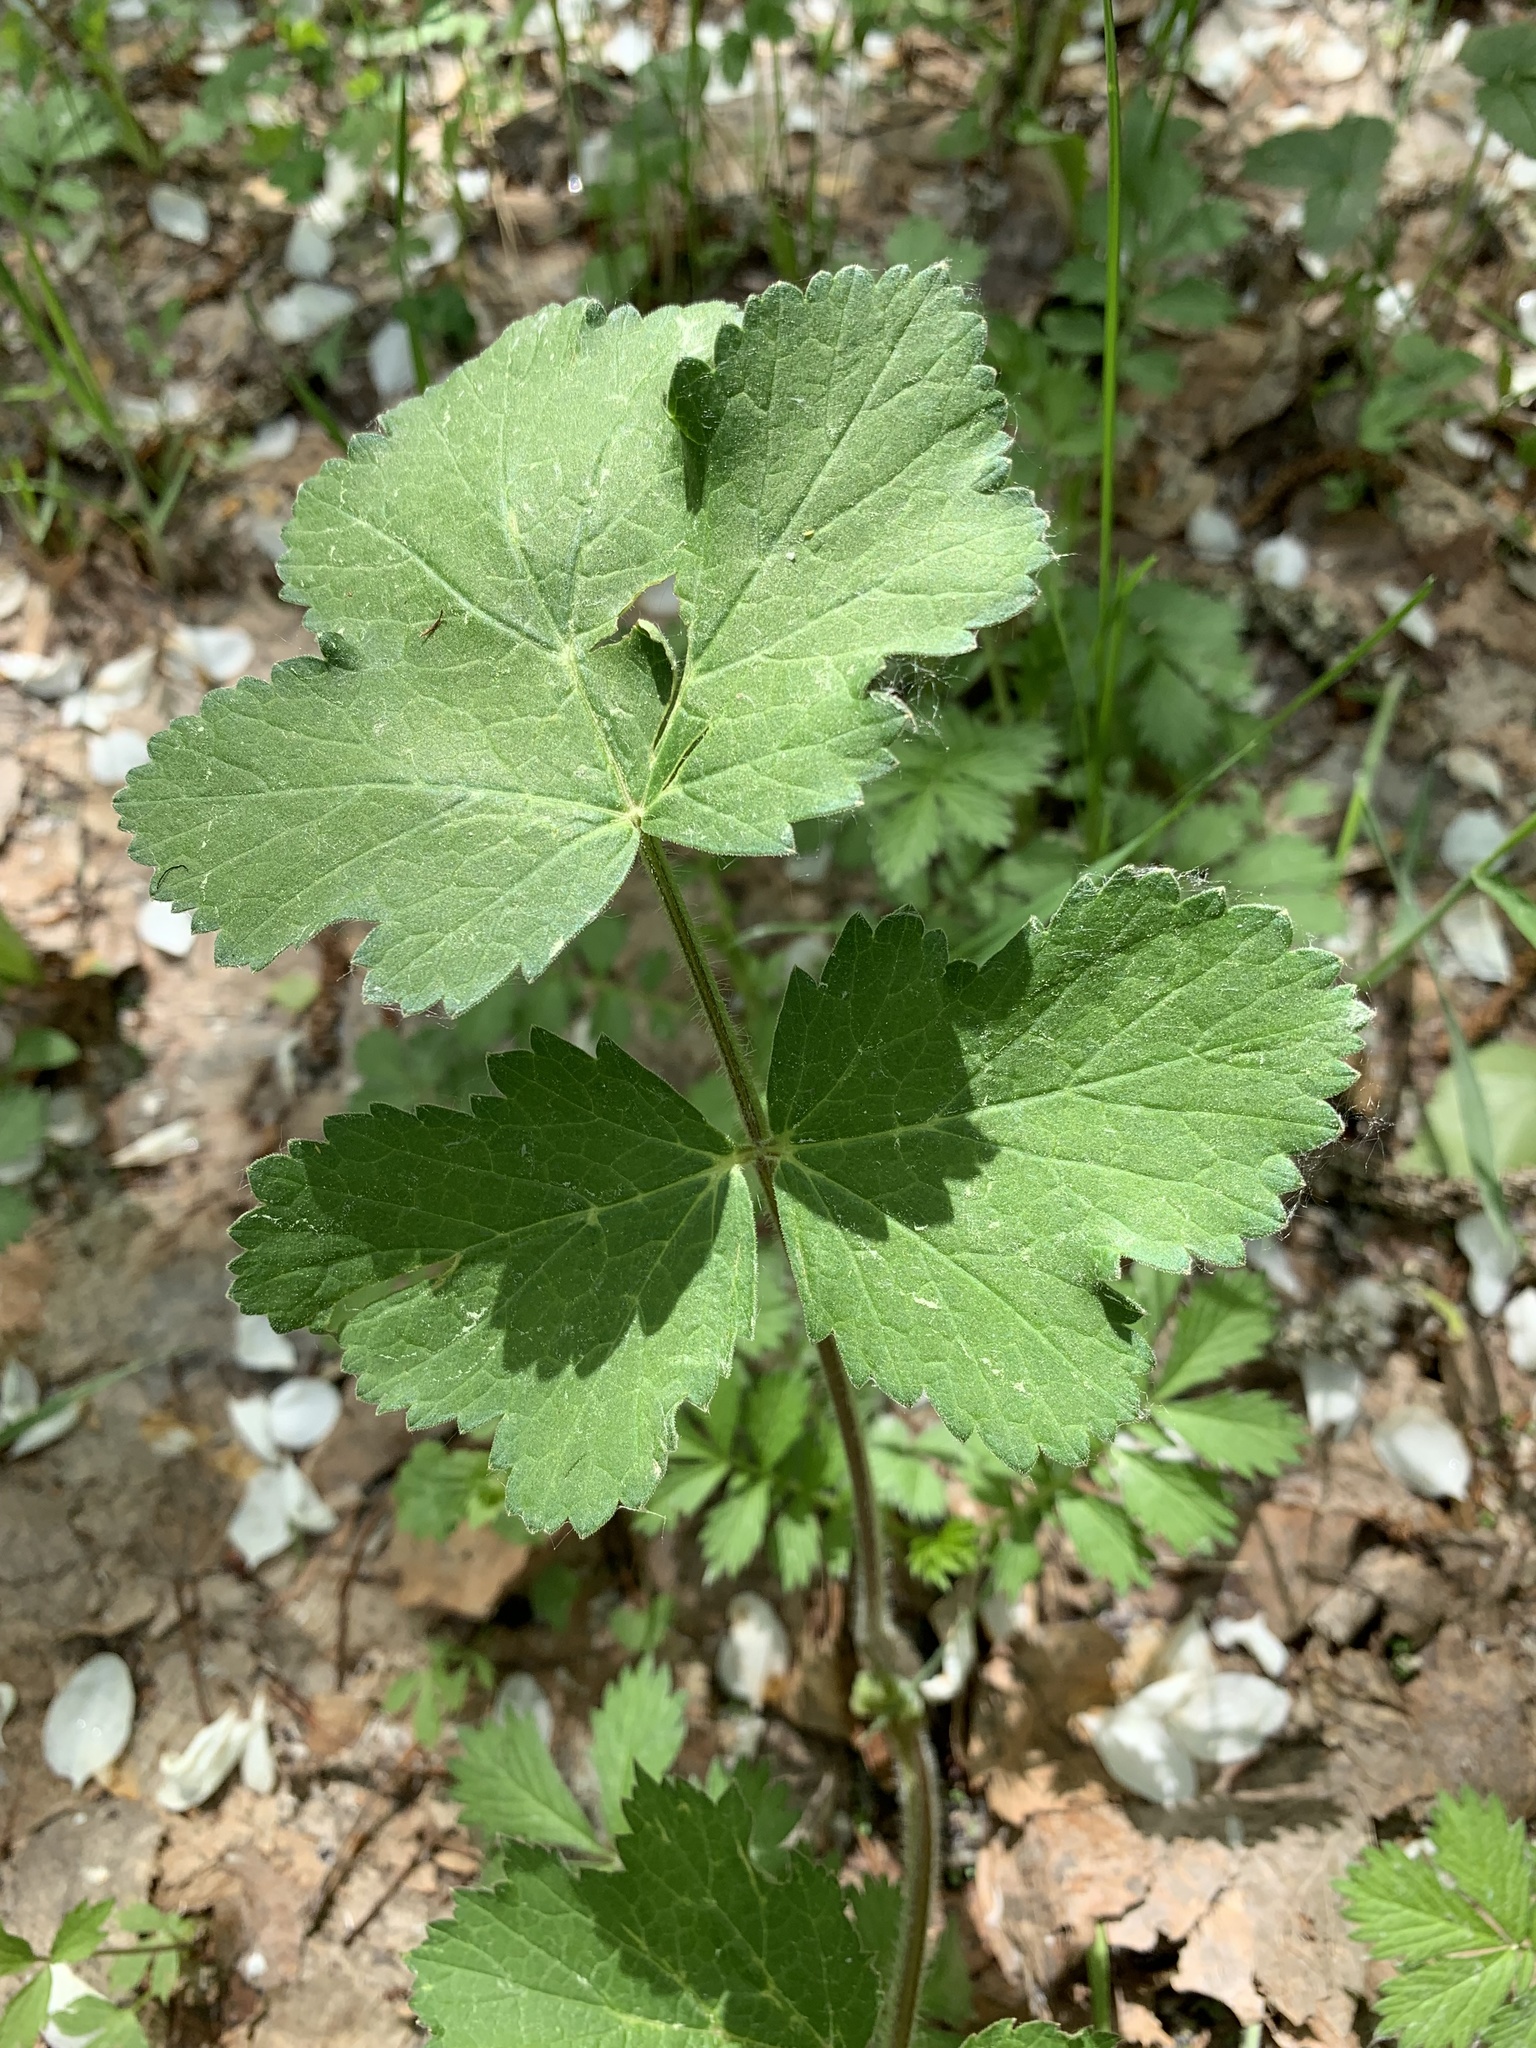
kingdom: Plantae
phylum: Tracheophyta
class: Magnoliopsida
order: Apiales
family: Apiaceae
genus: Heracleum
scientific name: Heracleum sphondylium
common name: Hogweed
